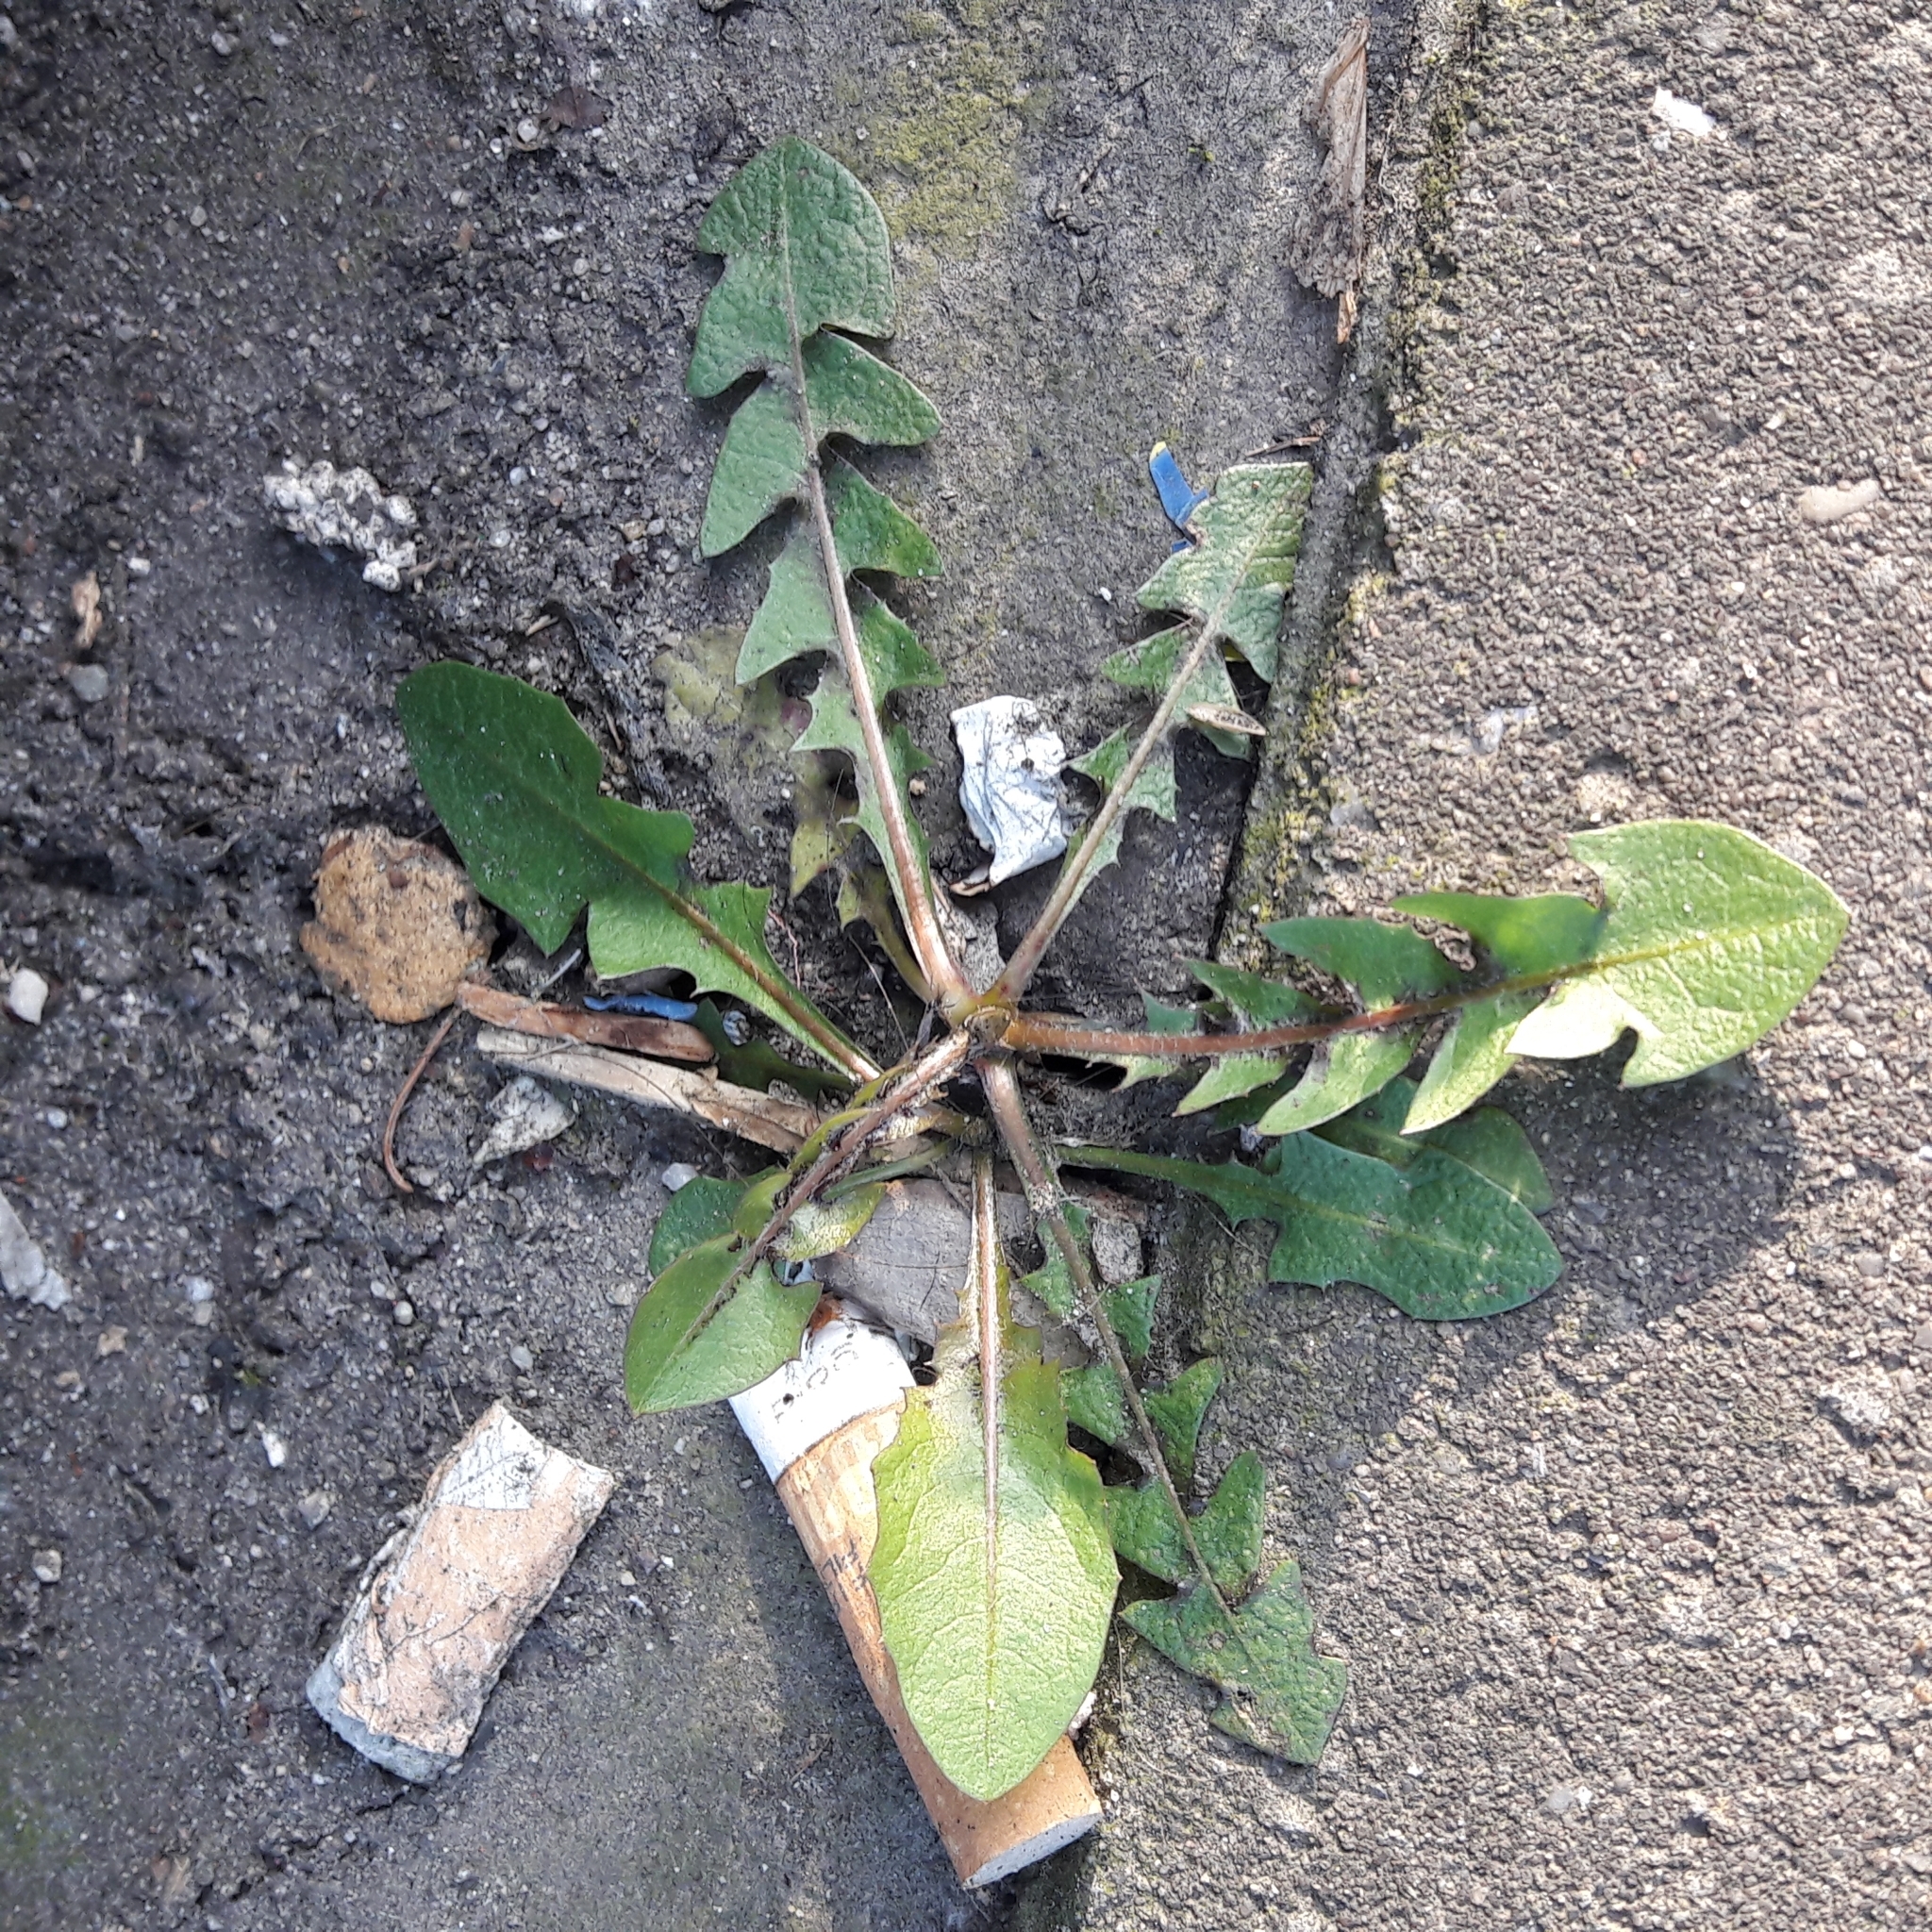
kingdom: Plantae
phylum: Tracheophyta
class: Magnoliopsida
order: Asterales
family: Asteraceae
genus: Taraxacum
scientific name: Taraxacum officinale
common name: Common dandelion
